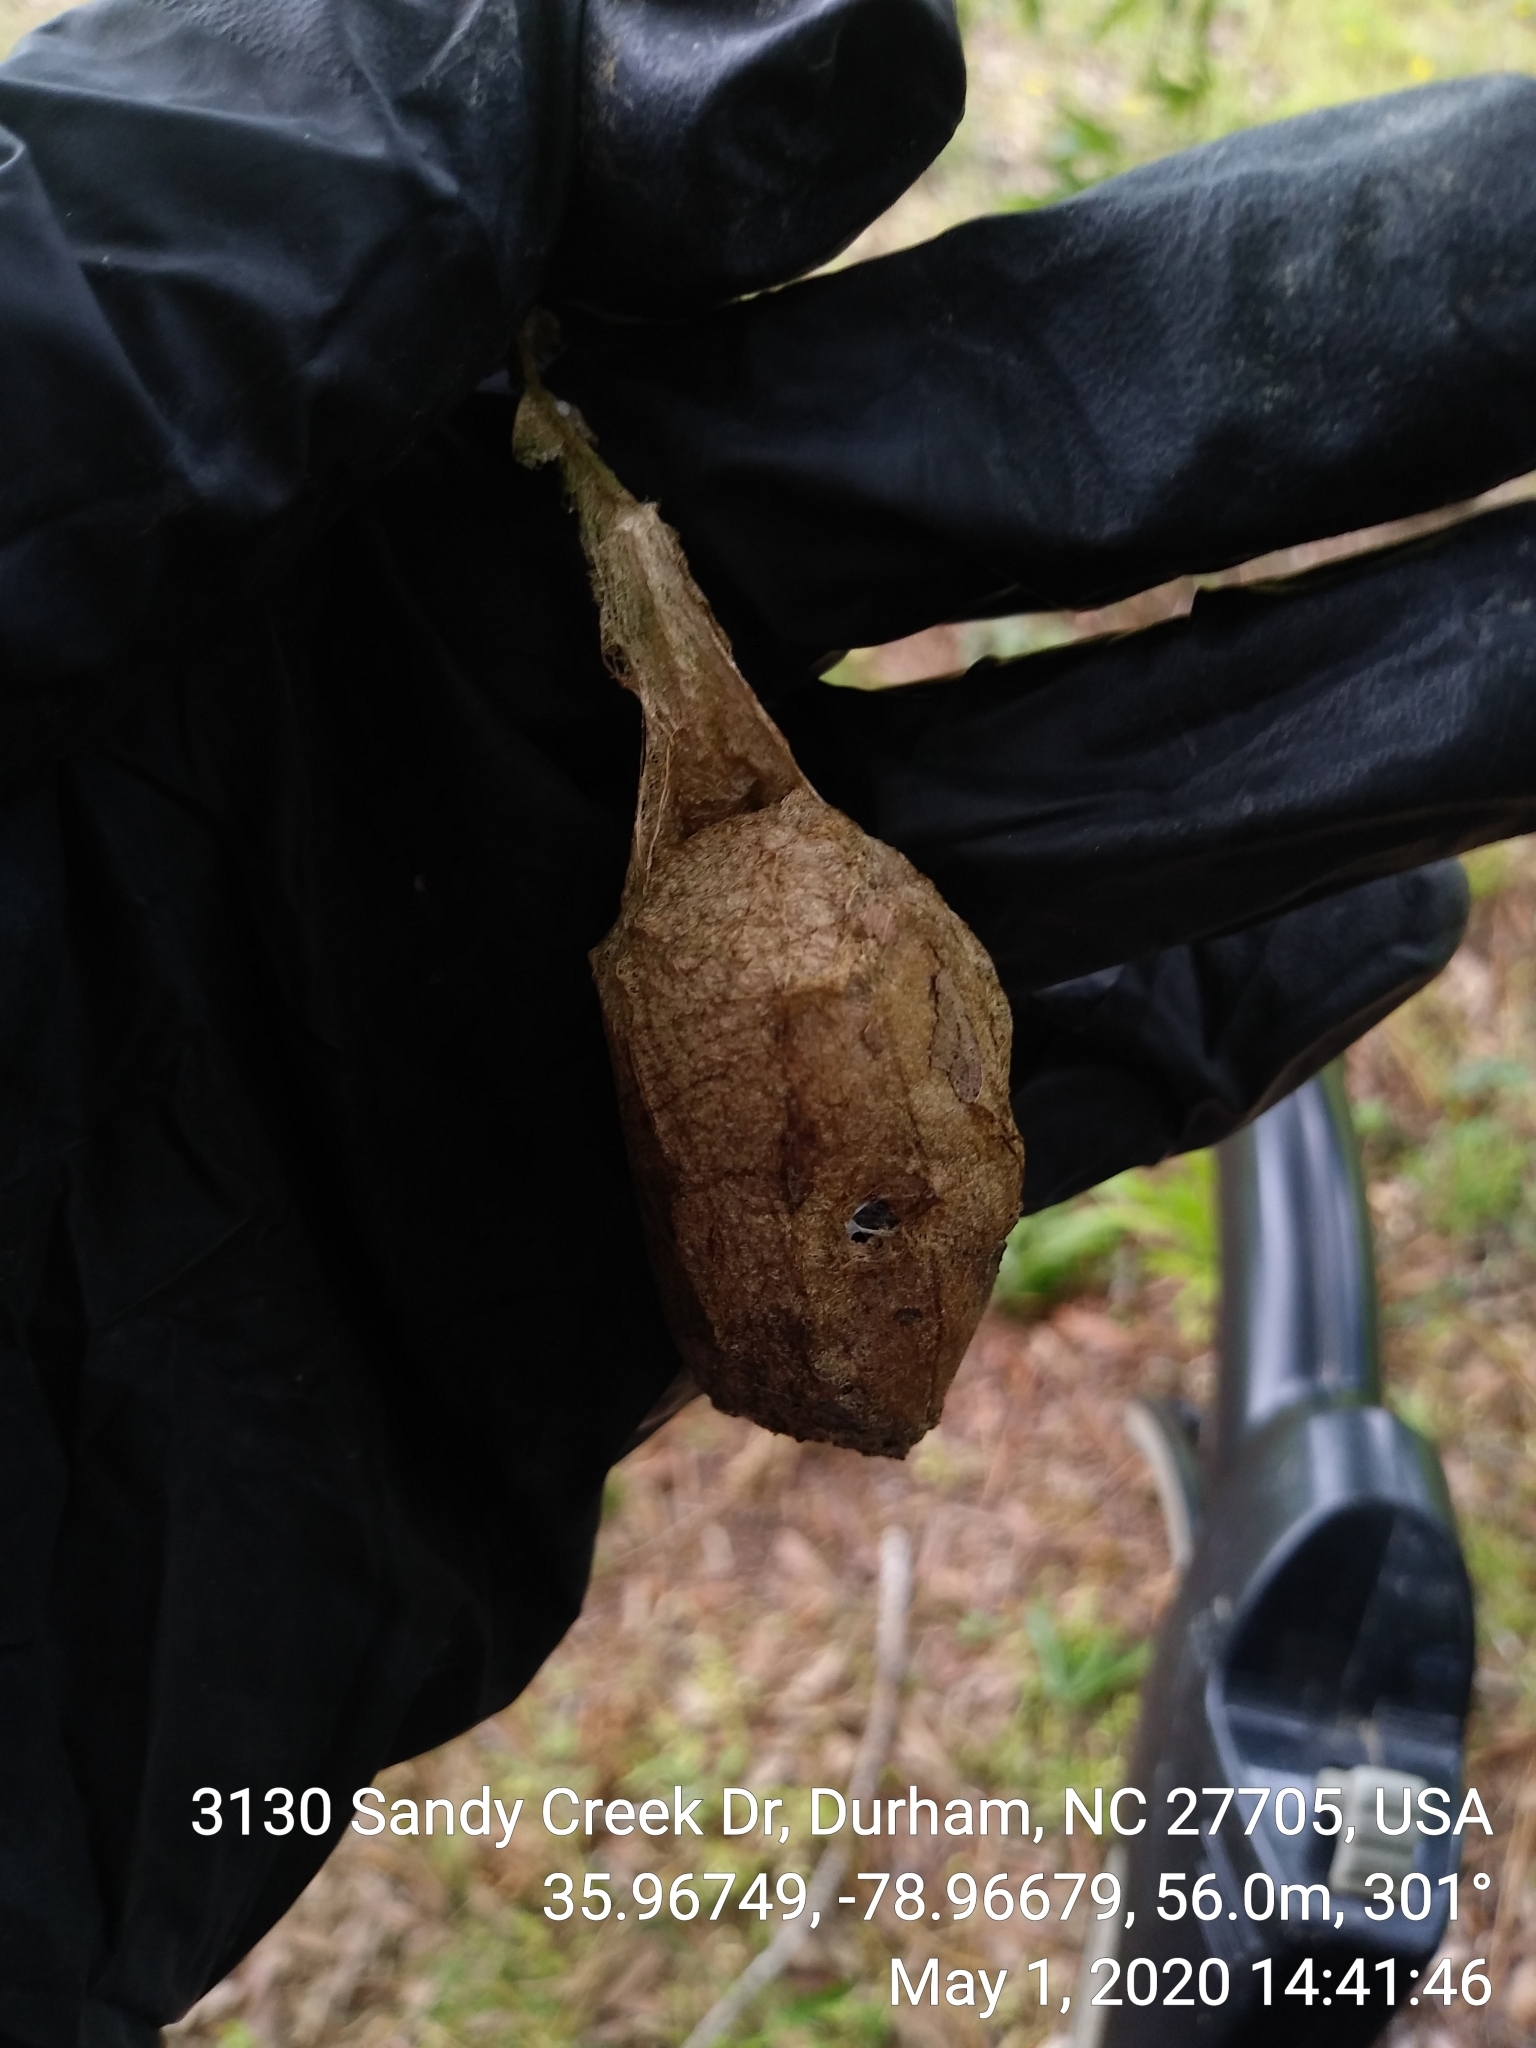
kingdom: Animalia
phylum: Arthropoda
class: Insecta
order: Lepidoptera
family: Saturniidae
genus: Antheraea
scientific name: Antheraea polyphemus
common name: Polyphemus moth
